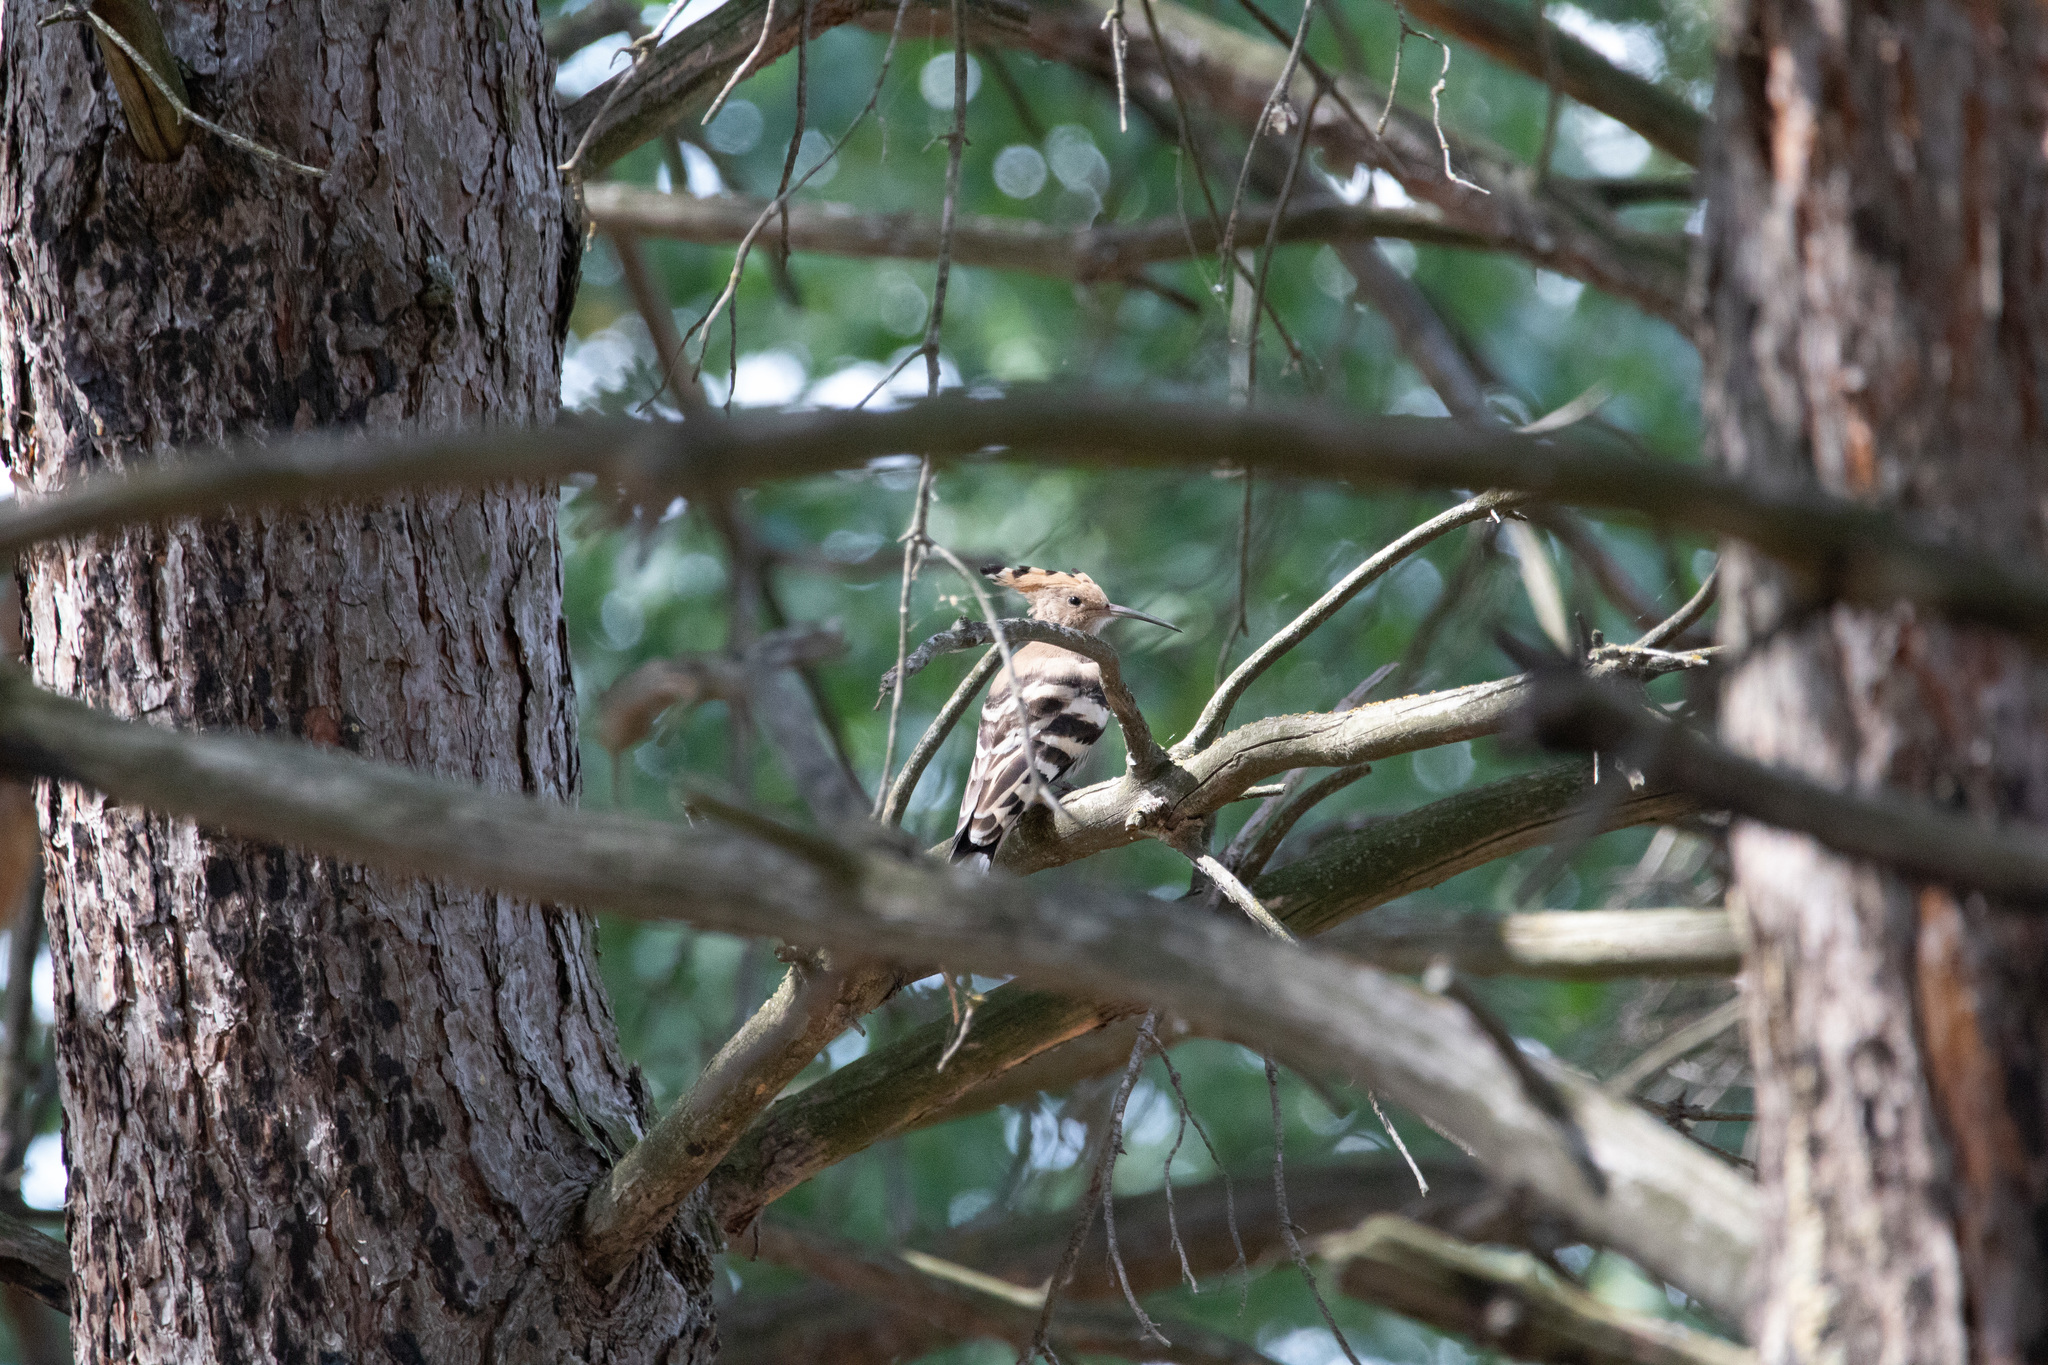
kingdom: Animalia
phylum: Chordata
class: Aves
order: Bucerotiformes
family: Upupidae
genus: Upupa
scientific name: Upupa epops
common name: Eurasian hoopoe
